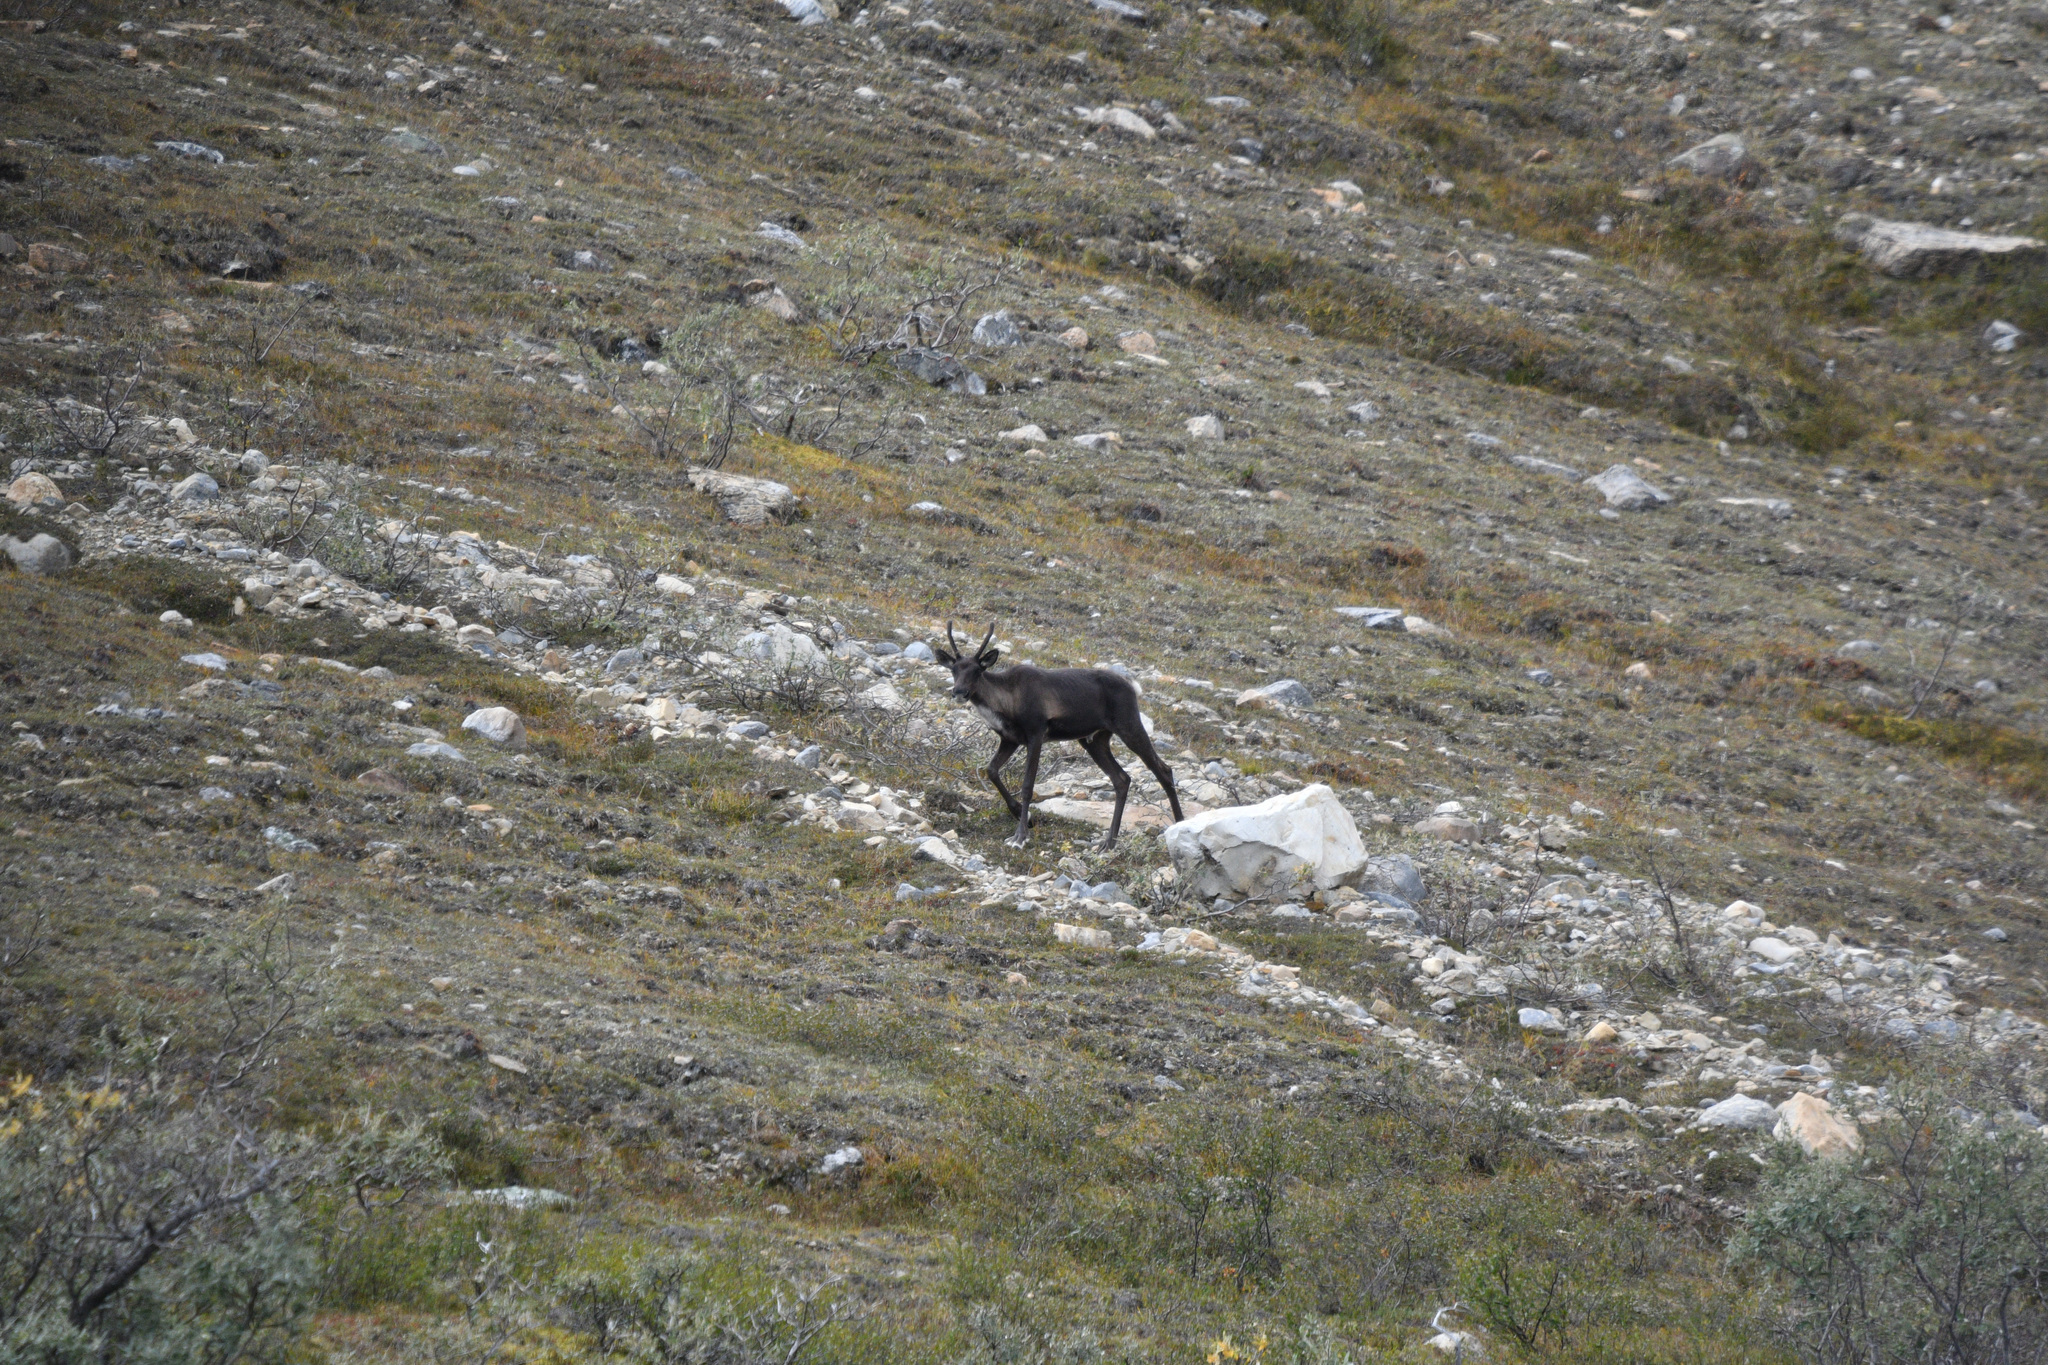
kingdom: Animalia
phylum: Chordata
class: Mammalia
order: Artiodactyla
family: Cervidae
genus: Rangifer
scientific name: Rangifer tarandus
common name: Reindeer
